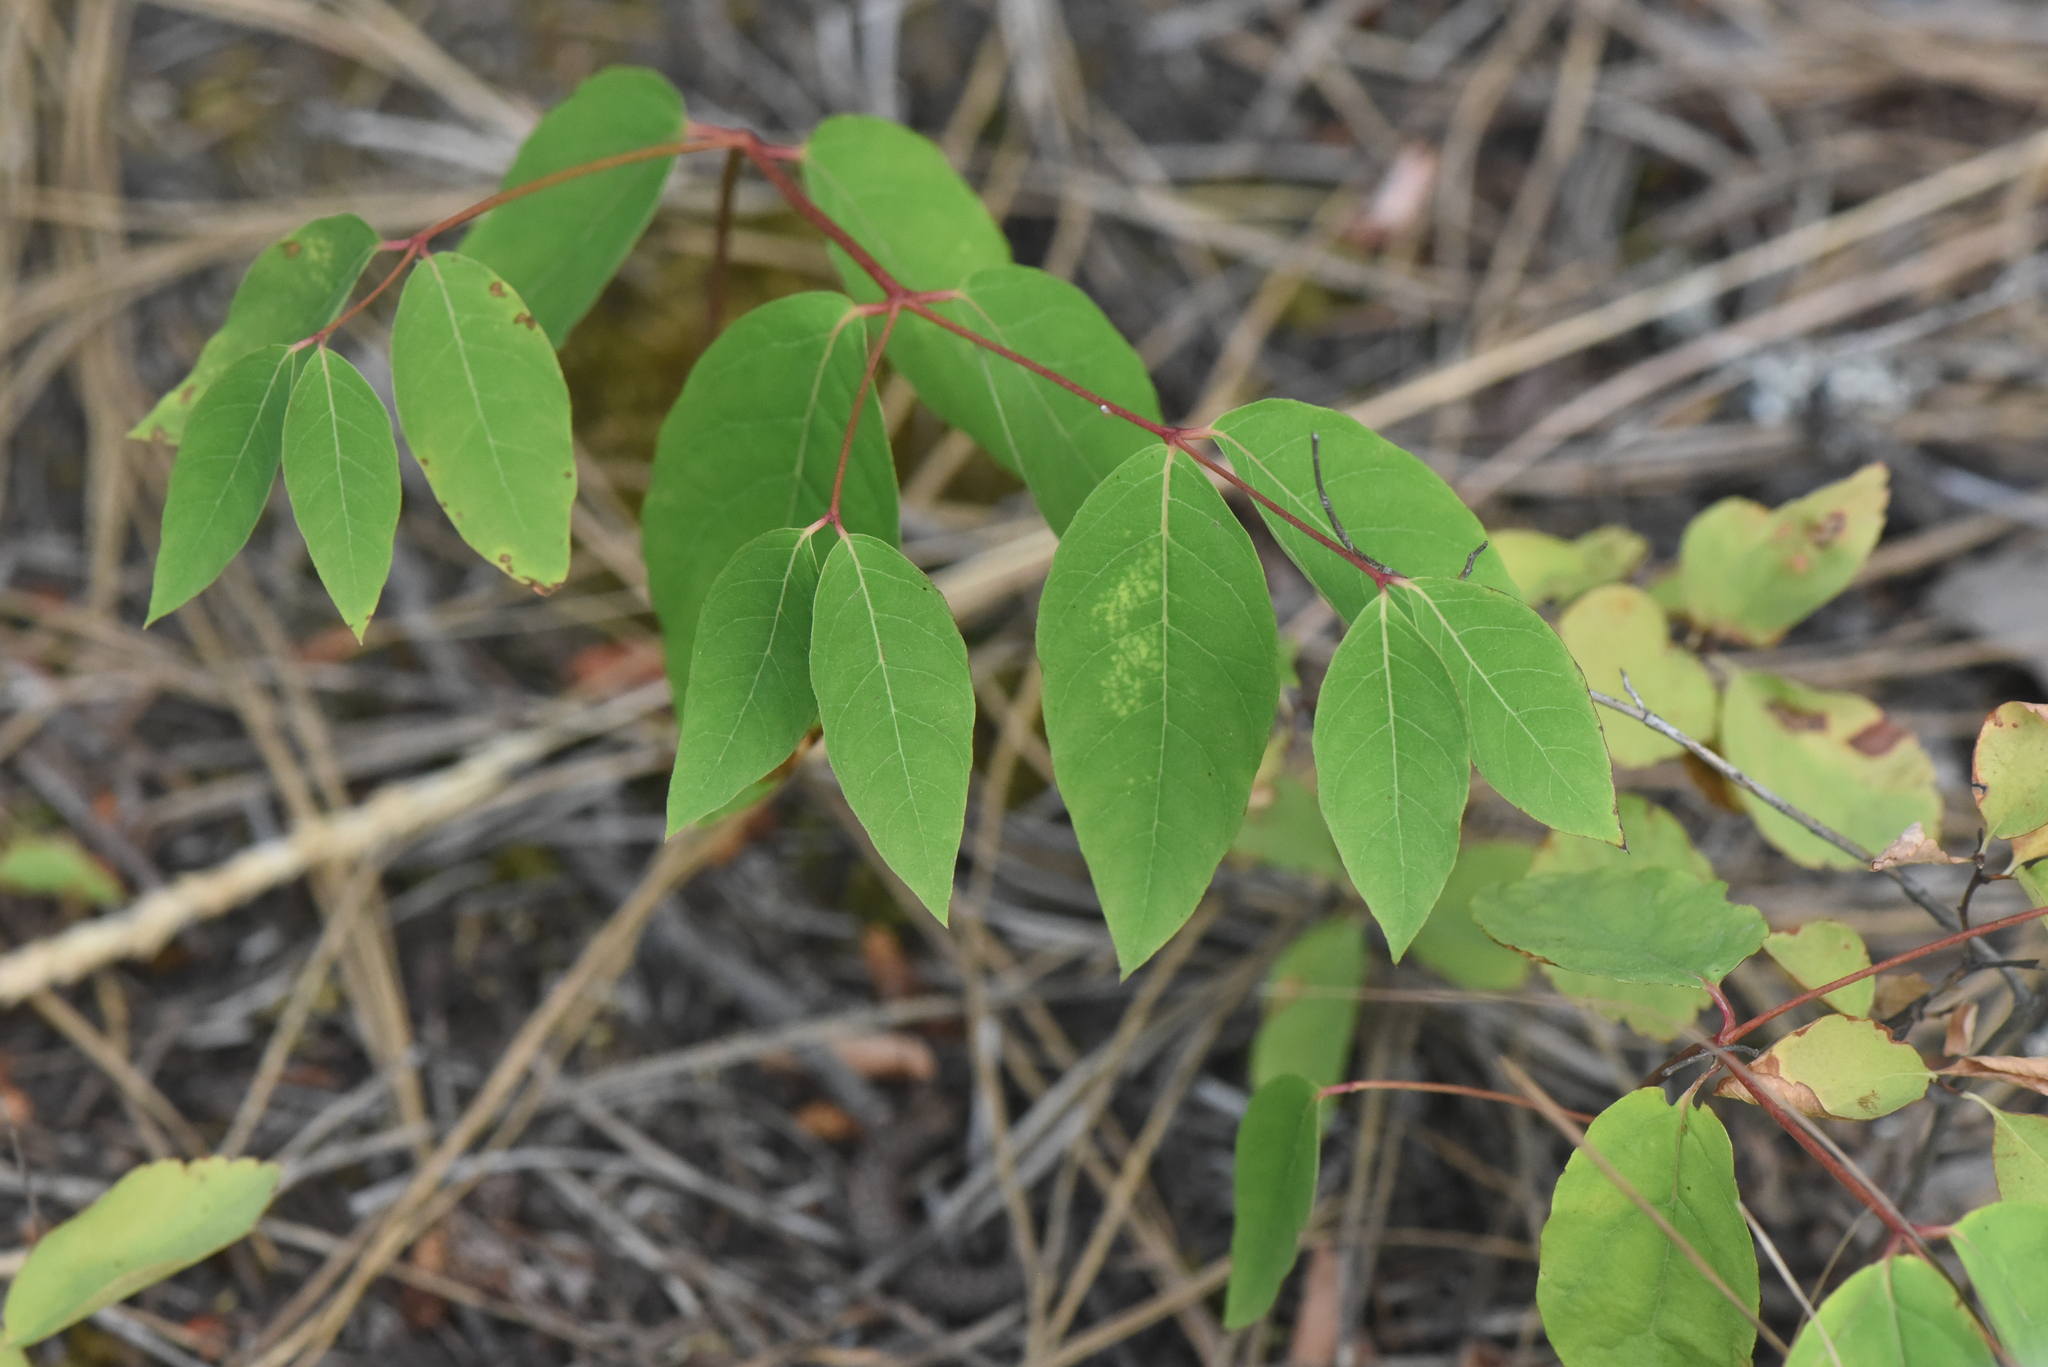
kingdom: Plantae
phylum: Tracheophyta
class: Magnoliopsida
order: Gentianales
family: Apocynaceae
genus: Apocynum
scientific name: Apocynum androsaemifolium
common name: Spreading dogbane
